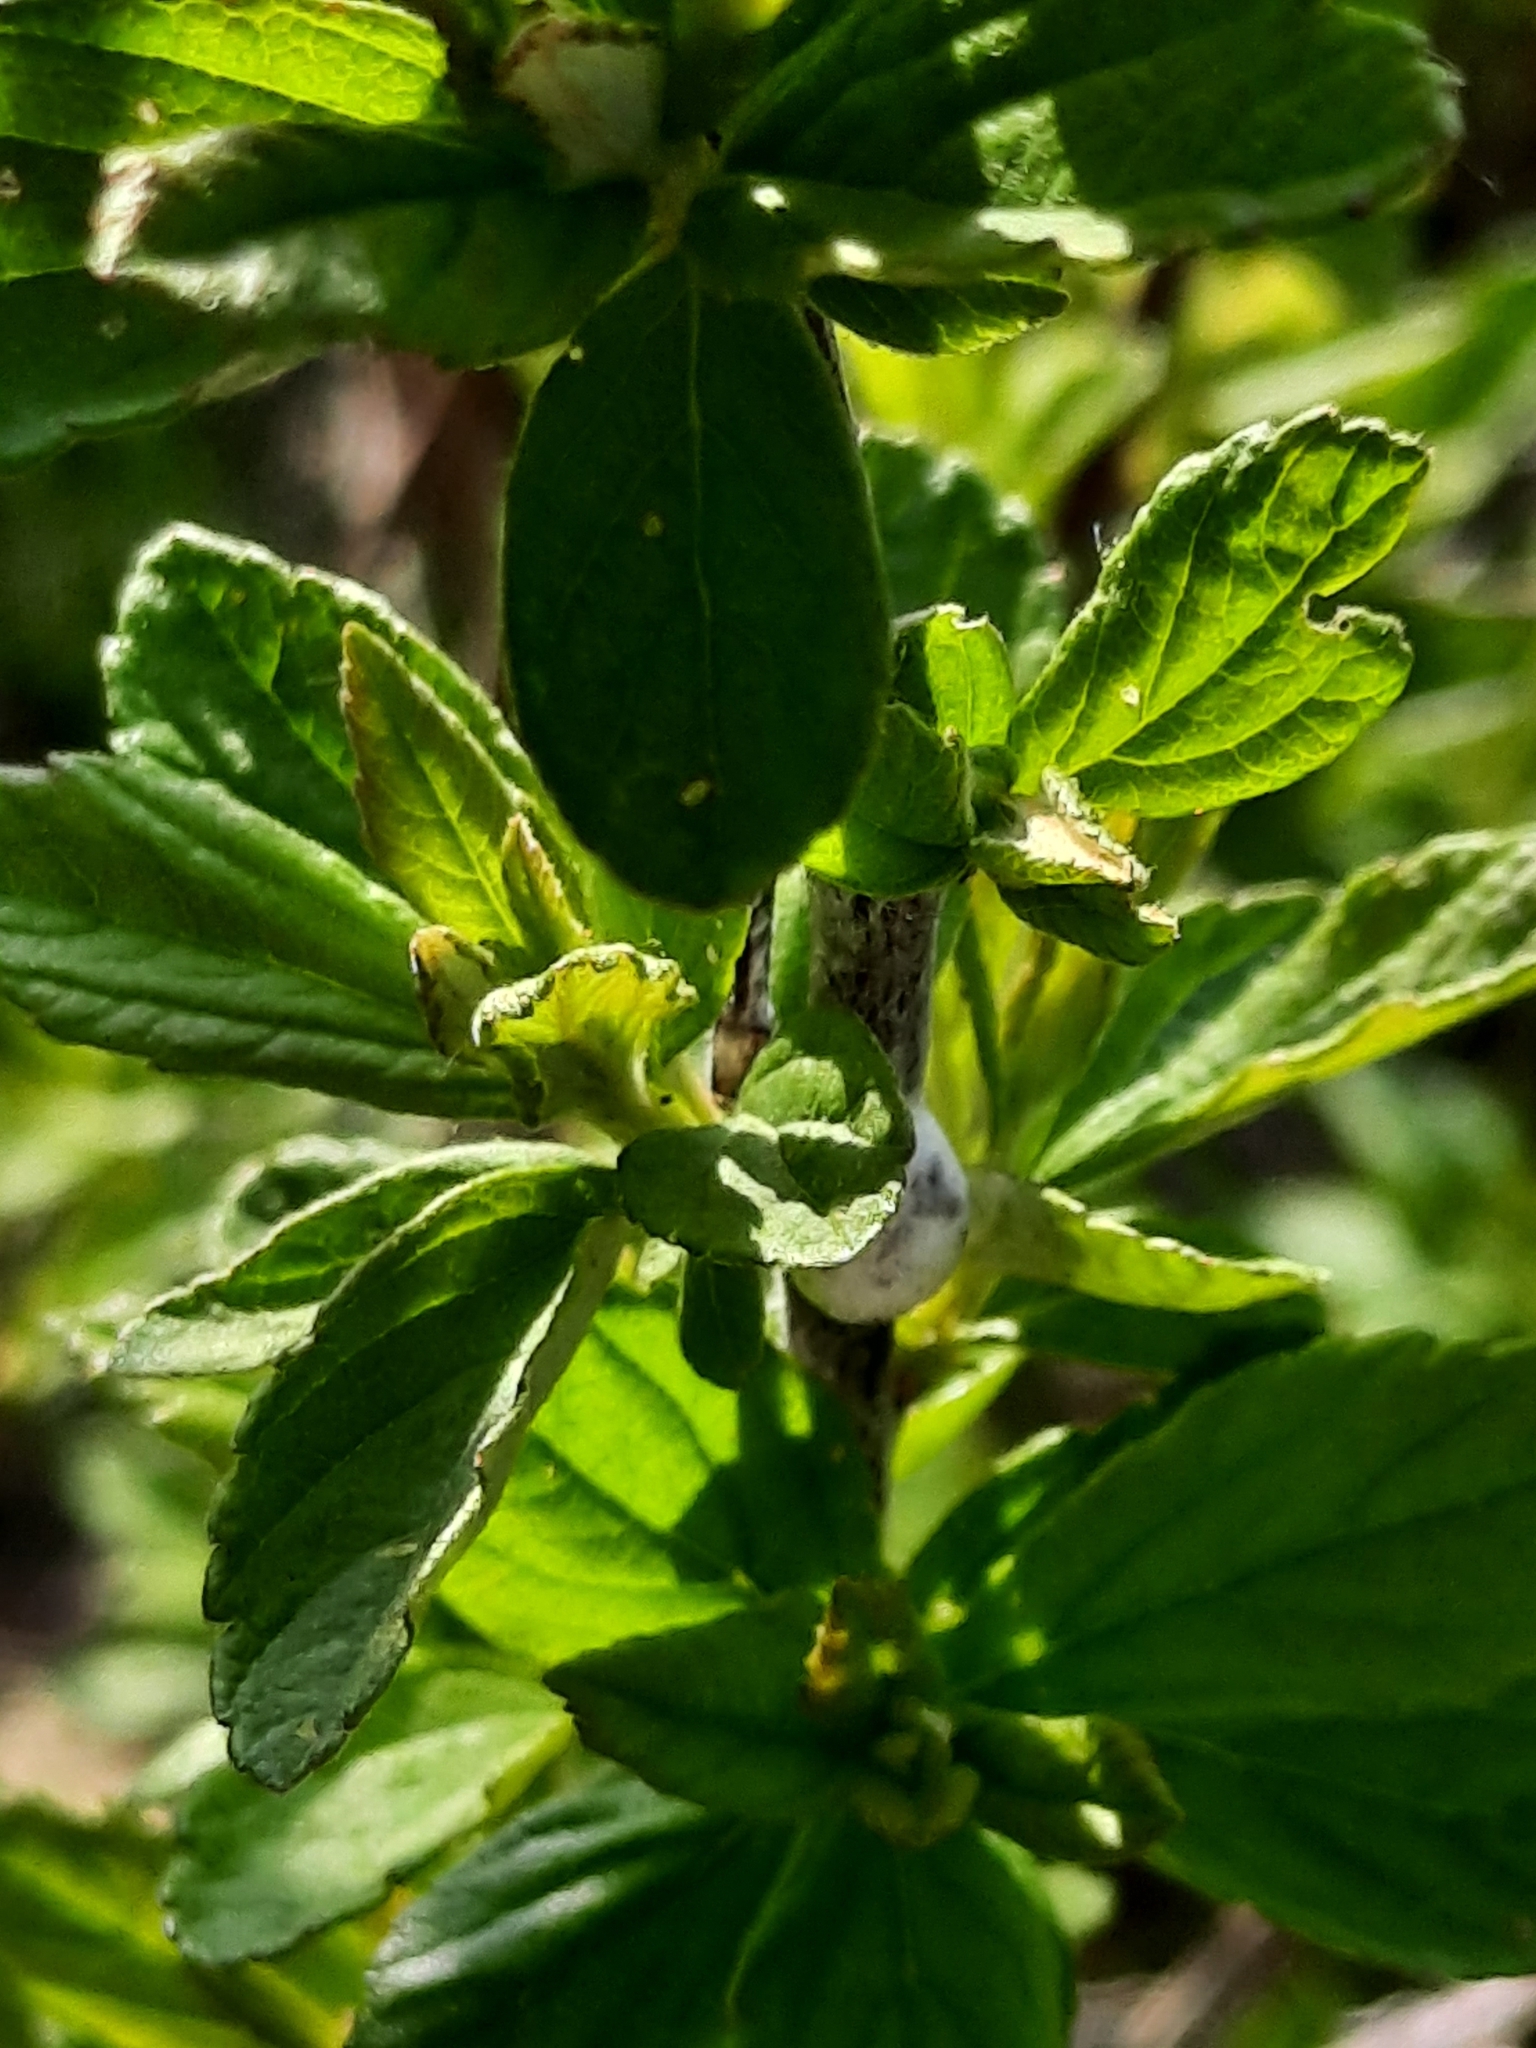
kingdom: Plantae
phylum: Tracheophyta
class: Magnoliopsida
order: Rosales
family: Rosaceae
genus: Spiraea
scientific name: Spiraea tomentosa
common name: Hardhack
